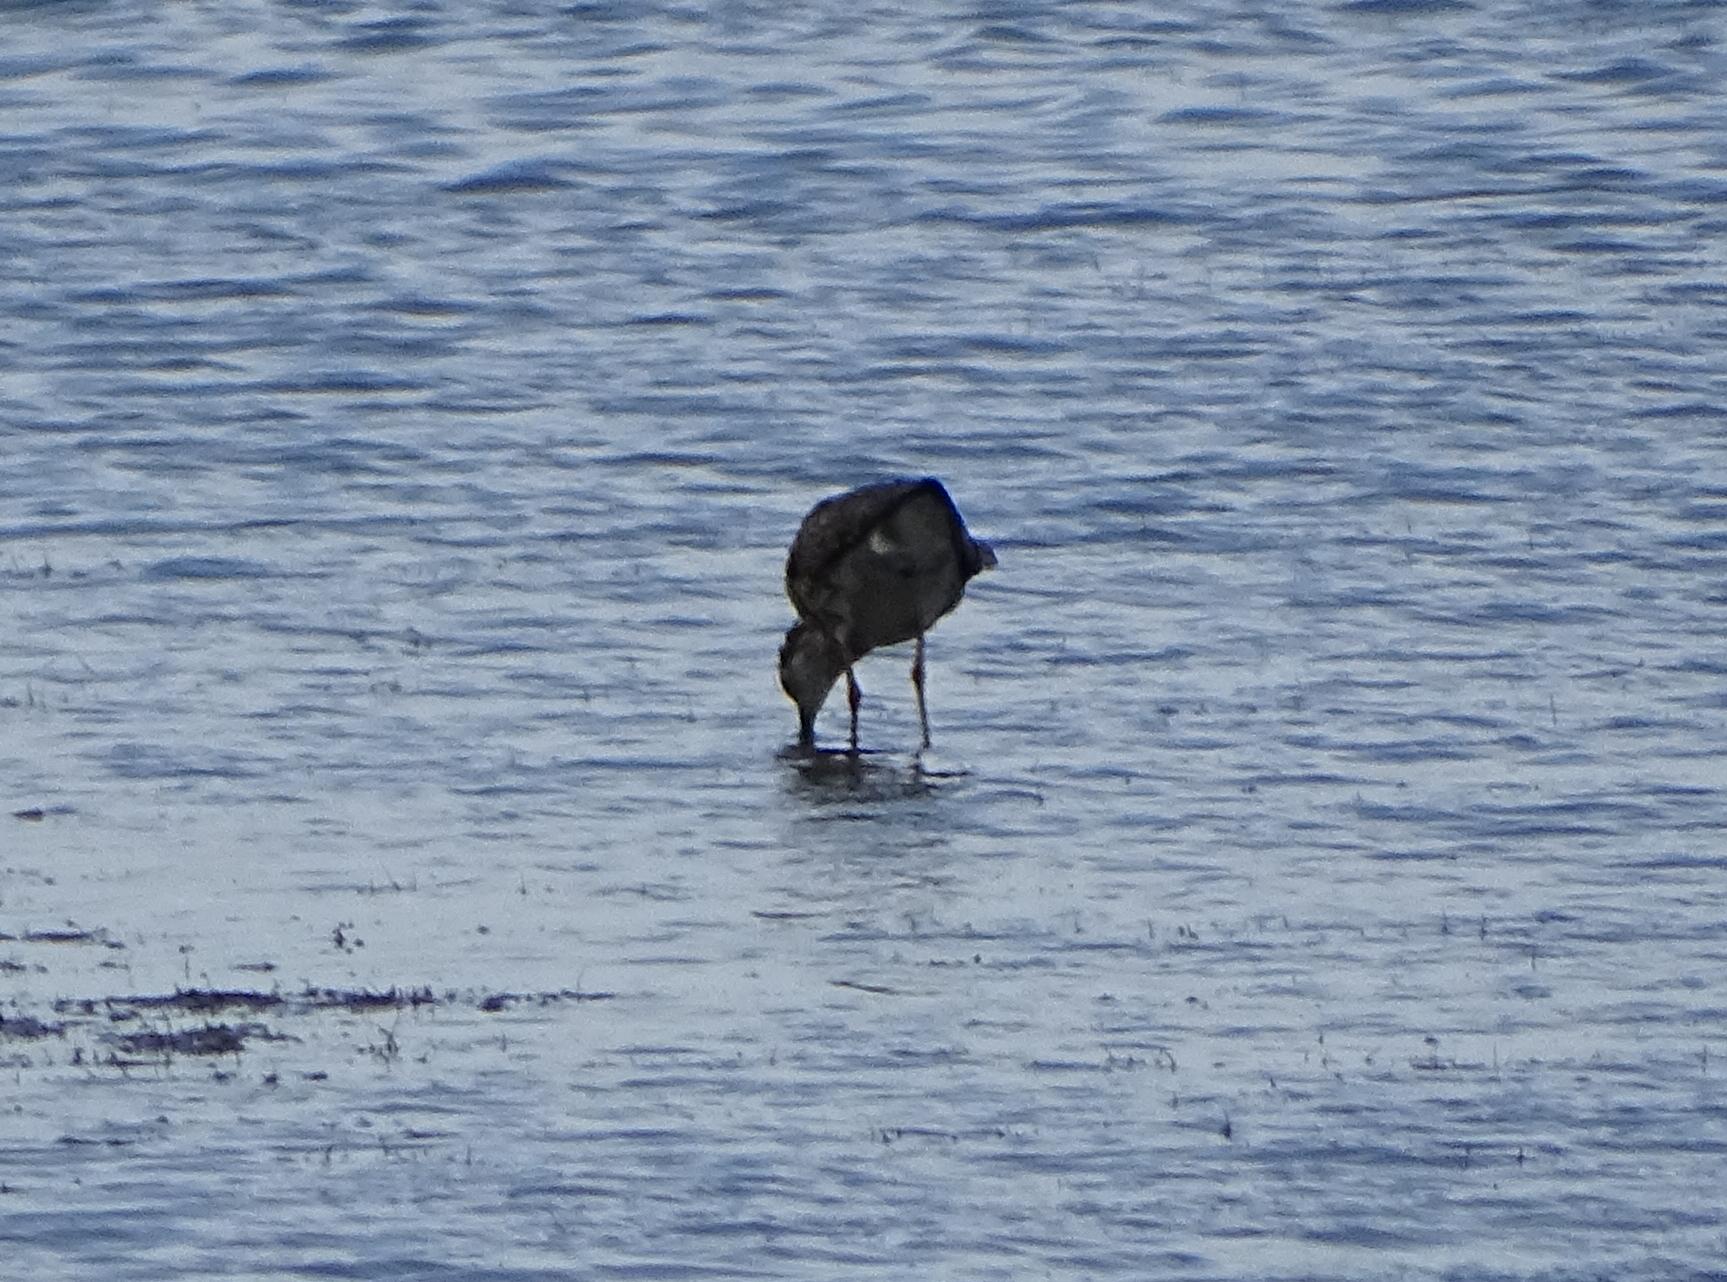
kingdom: Animalia
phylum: Chordata
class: Aves
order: Charadriiformes
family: Scolopacidae
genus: Calidris
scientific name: Calidris pugnax
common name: Ruff
